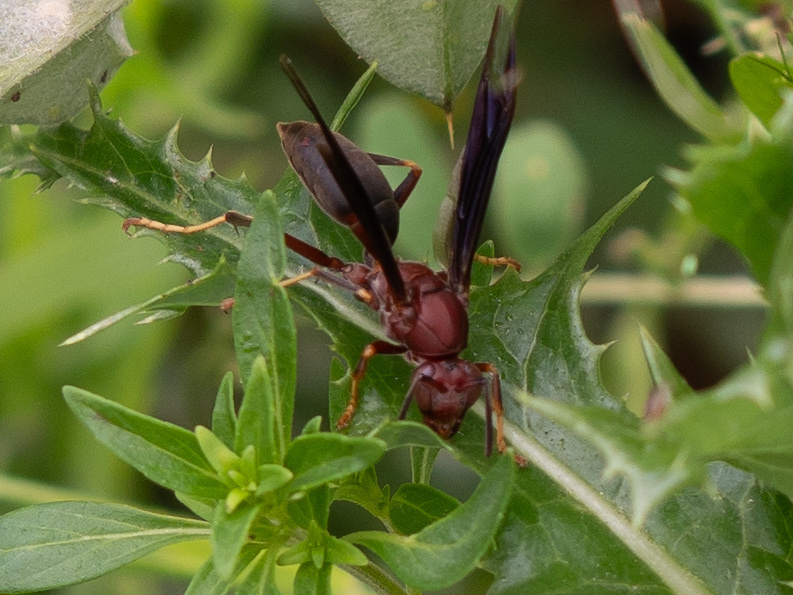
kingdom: Animalia
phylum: Arthropoda
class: Insecta
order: Hymenoptera
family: Eumenidae
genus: Polistes
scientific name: Polistes metricus
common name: Metric paper wasp
